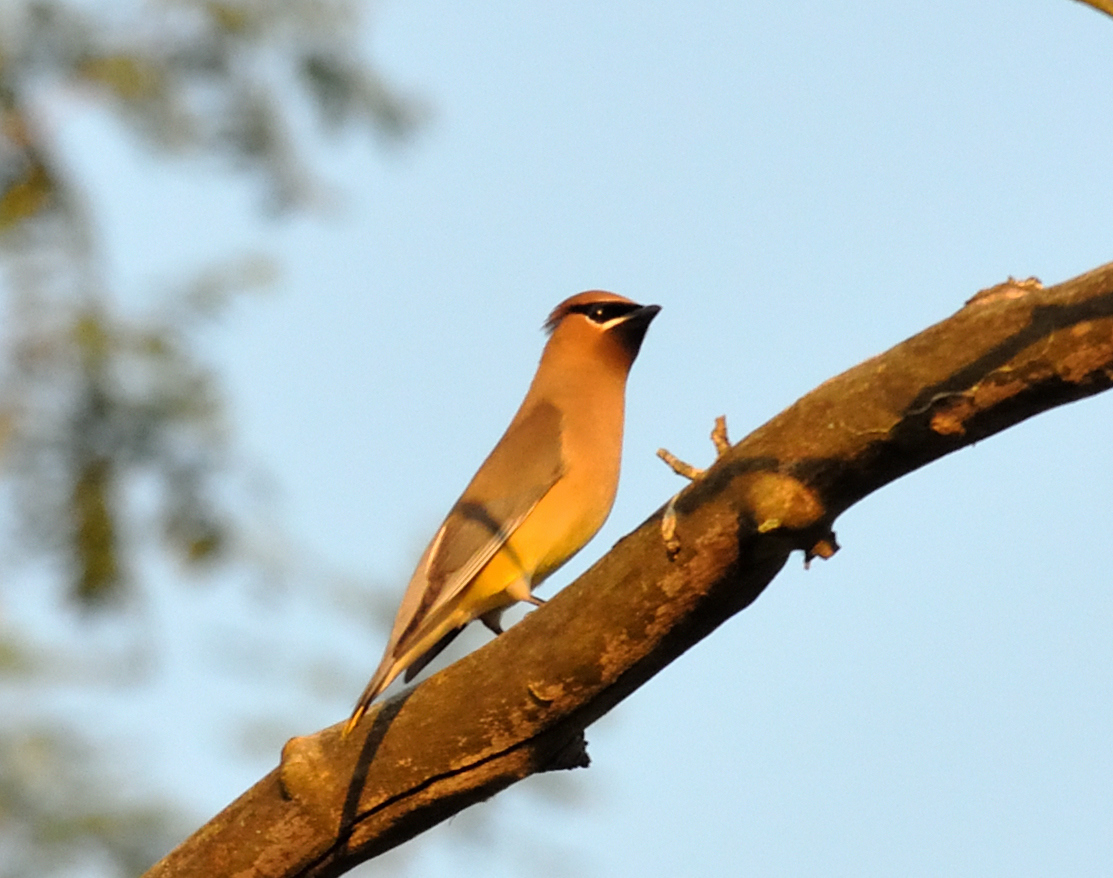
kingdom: Animalia
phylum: Chordata
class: Aves
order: Passeriformes
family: Bombycillidae
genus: Bombycilla
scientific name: Bombycilla cedrorum
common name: Cedar waxwing
